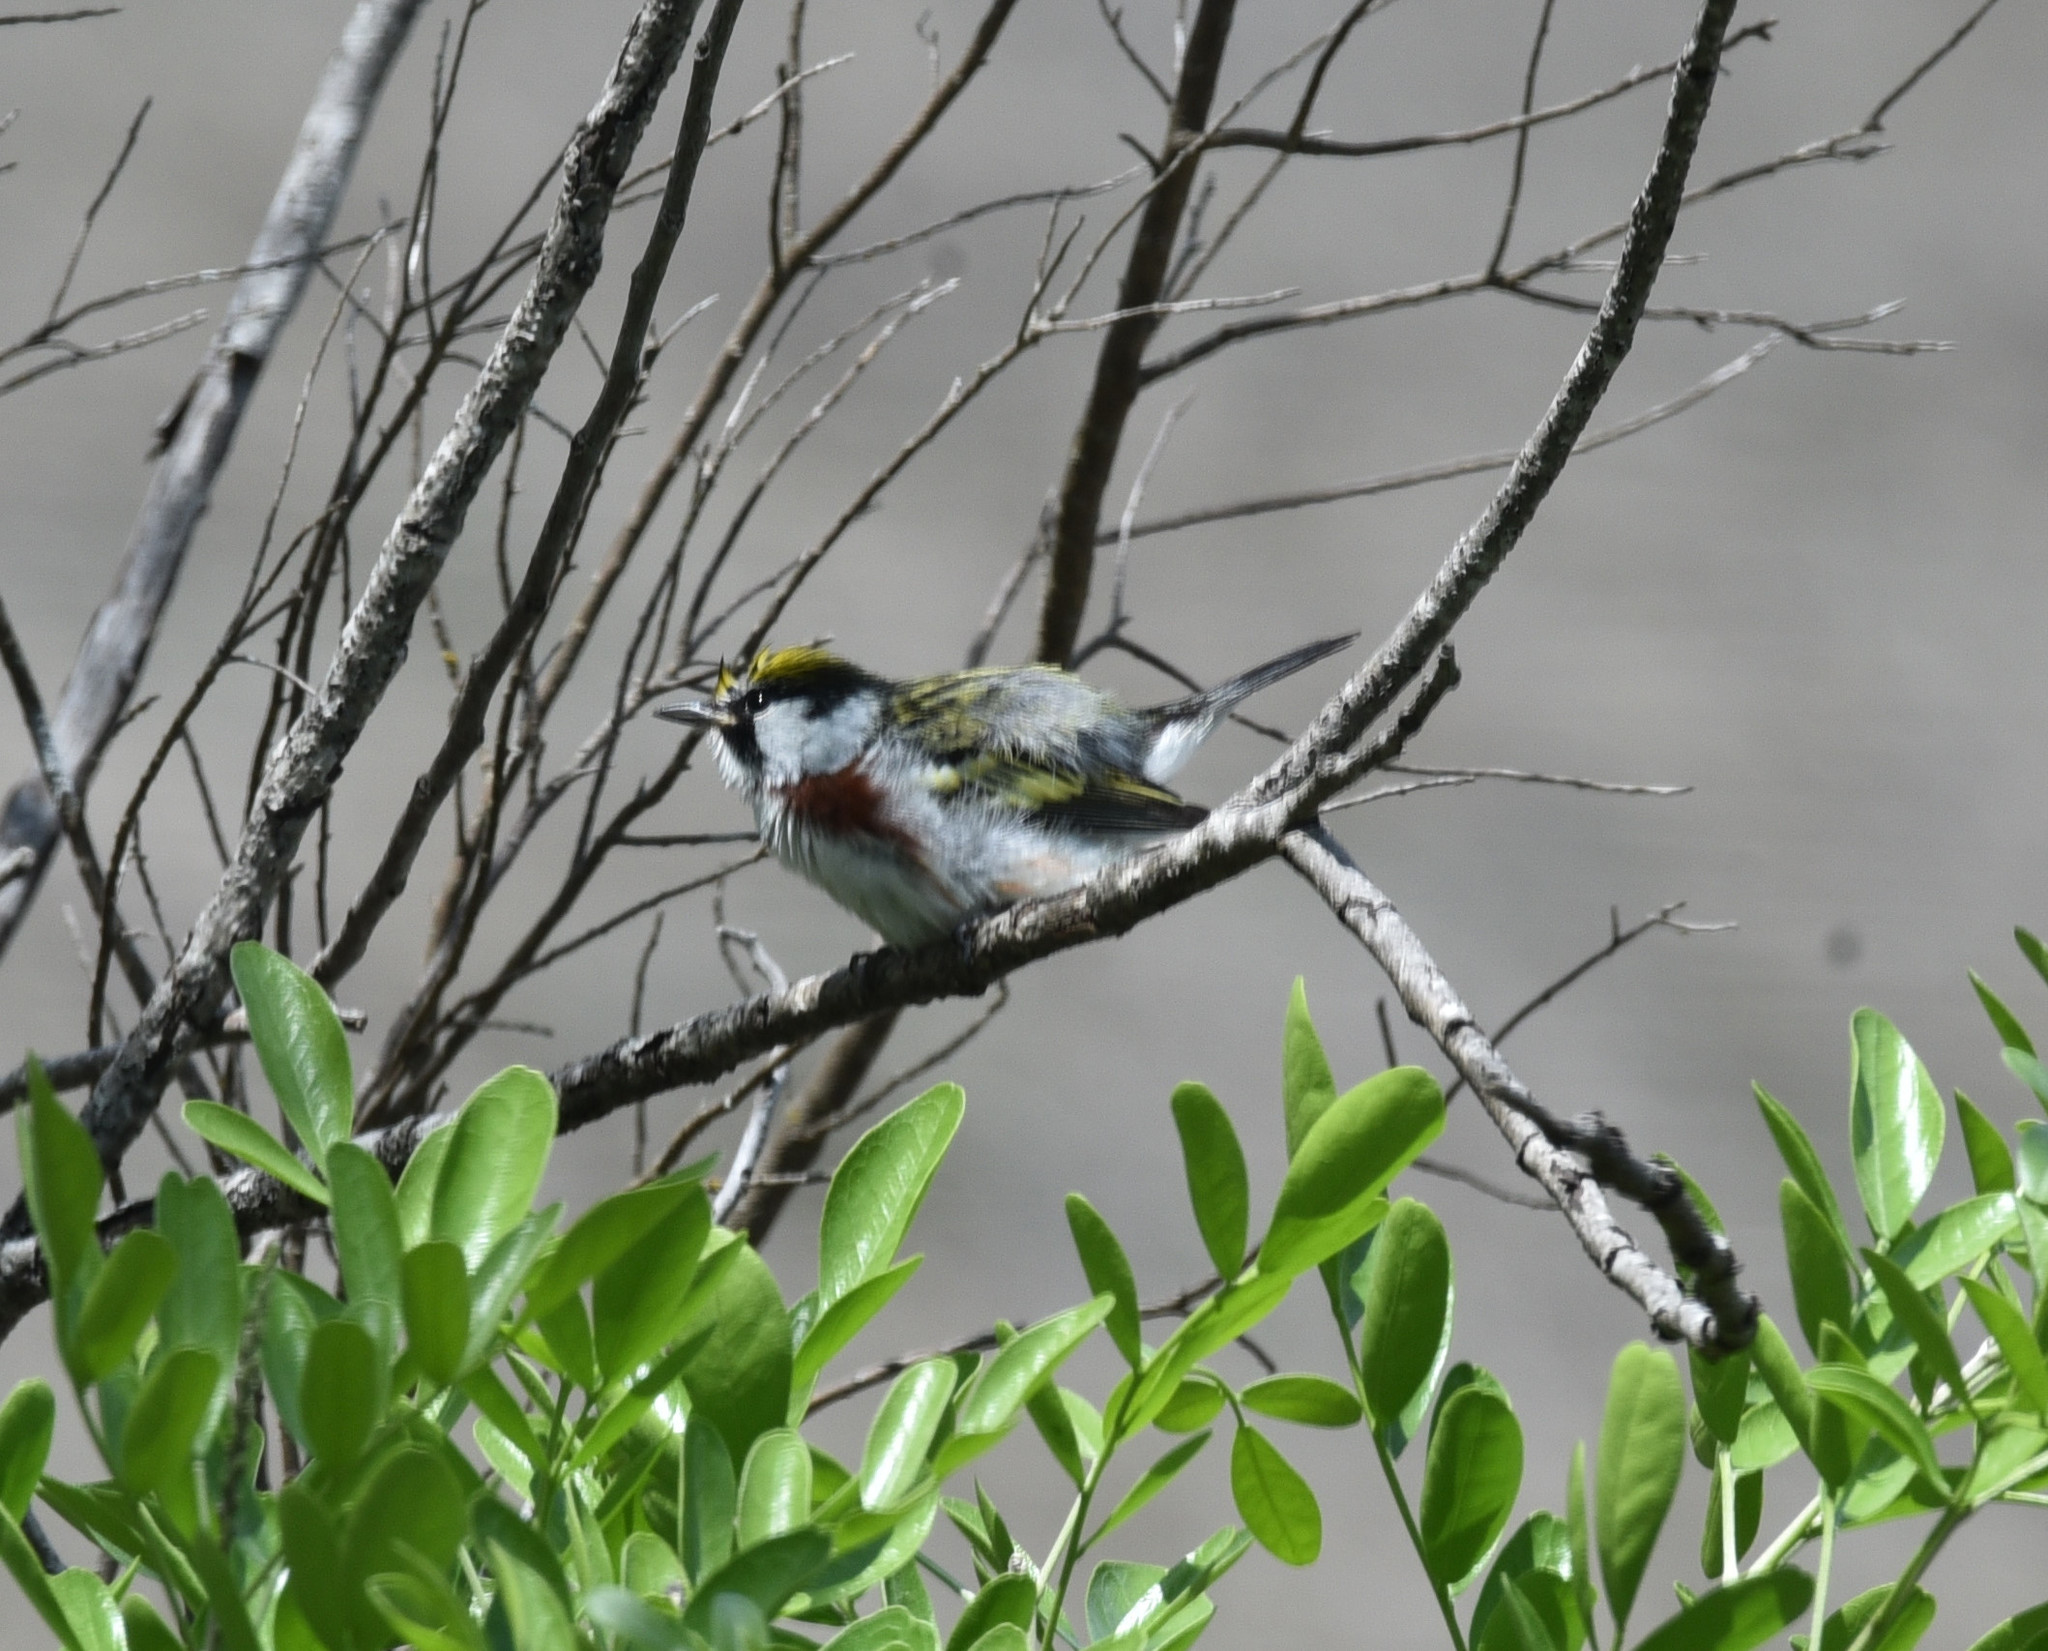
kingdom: Animalia
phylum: Chordata
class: Aves
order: Passeriformes
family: Parulidae
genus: Setophaga
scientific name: Setophaga pensylvanica
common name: Chestnut-sided warbler
